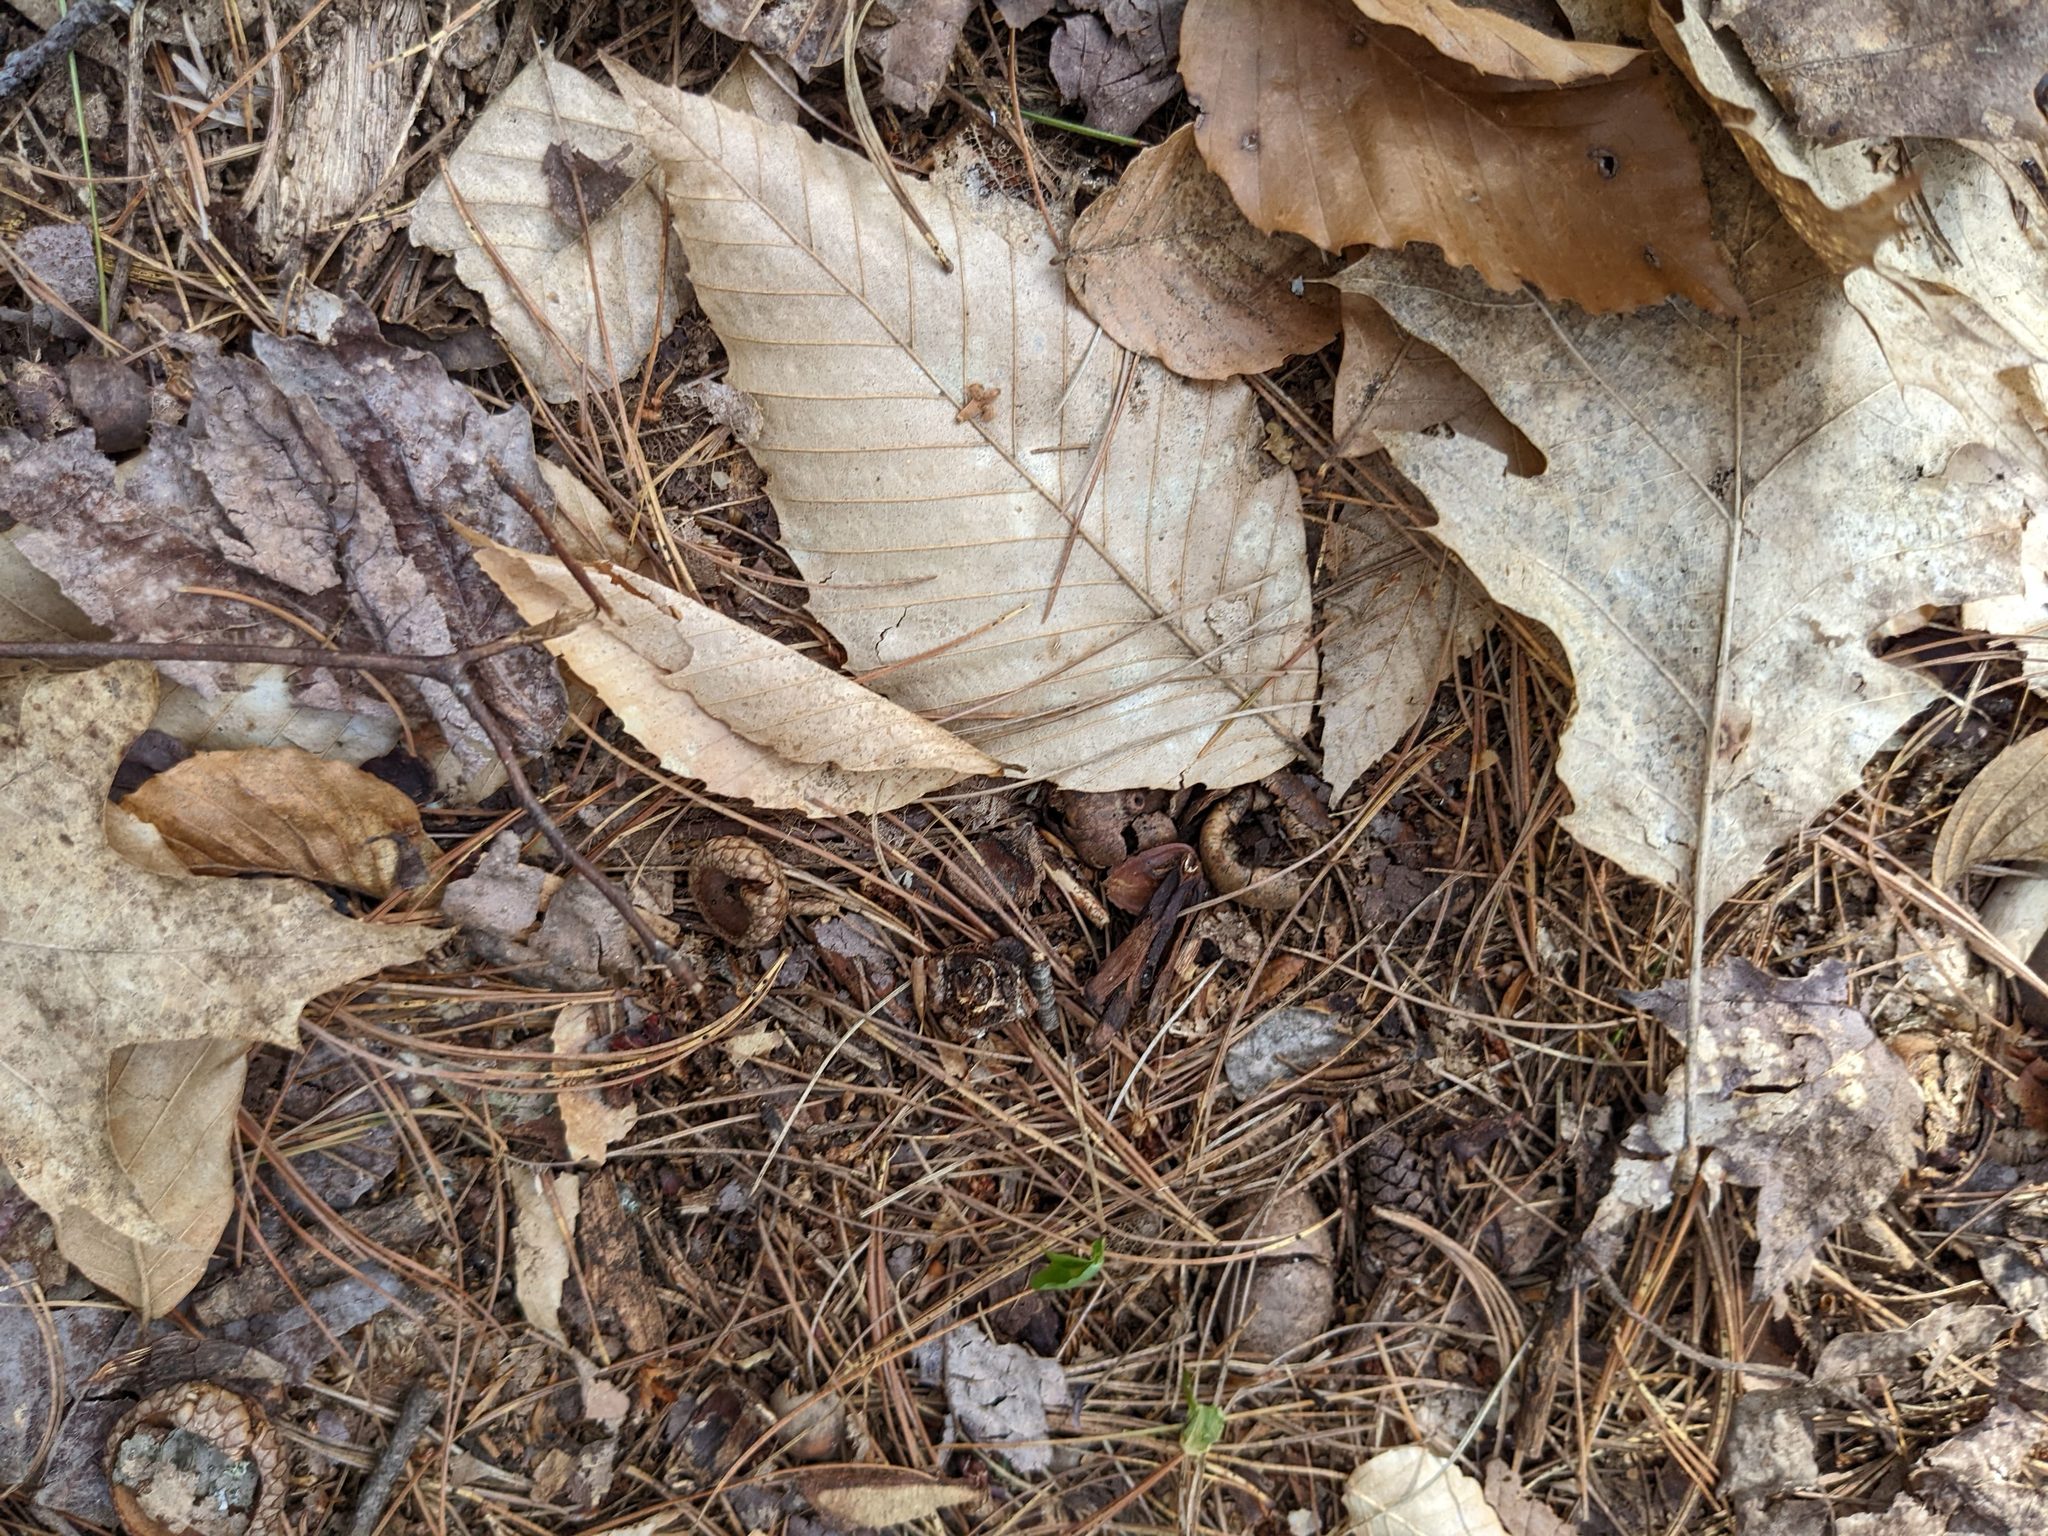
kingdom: Plantae
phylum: Tracheophyta
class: Magnoliopsida
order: Fagales
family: Fagaceae
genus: Fagus
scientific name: Fagus grandifolia
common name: American beech
